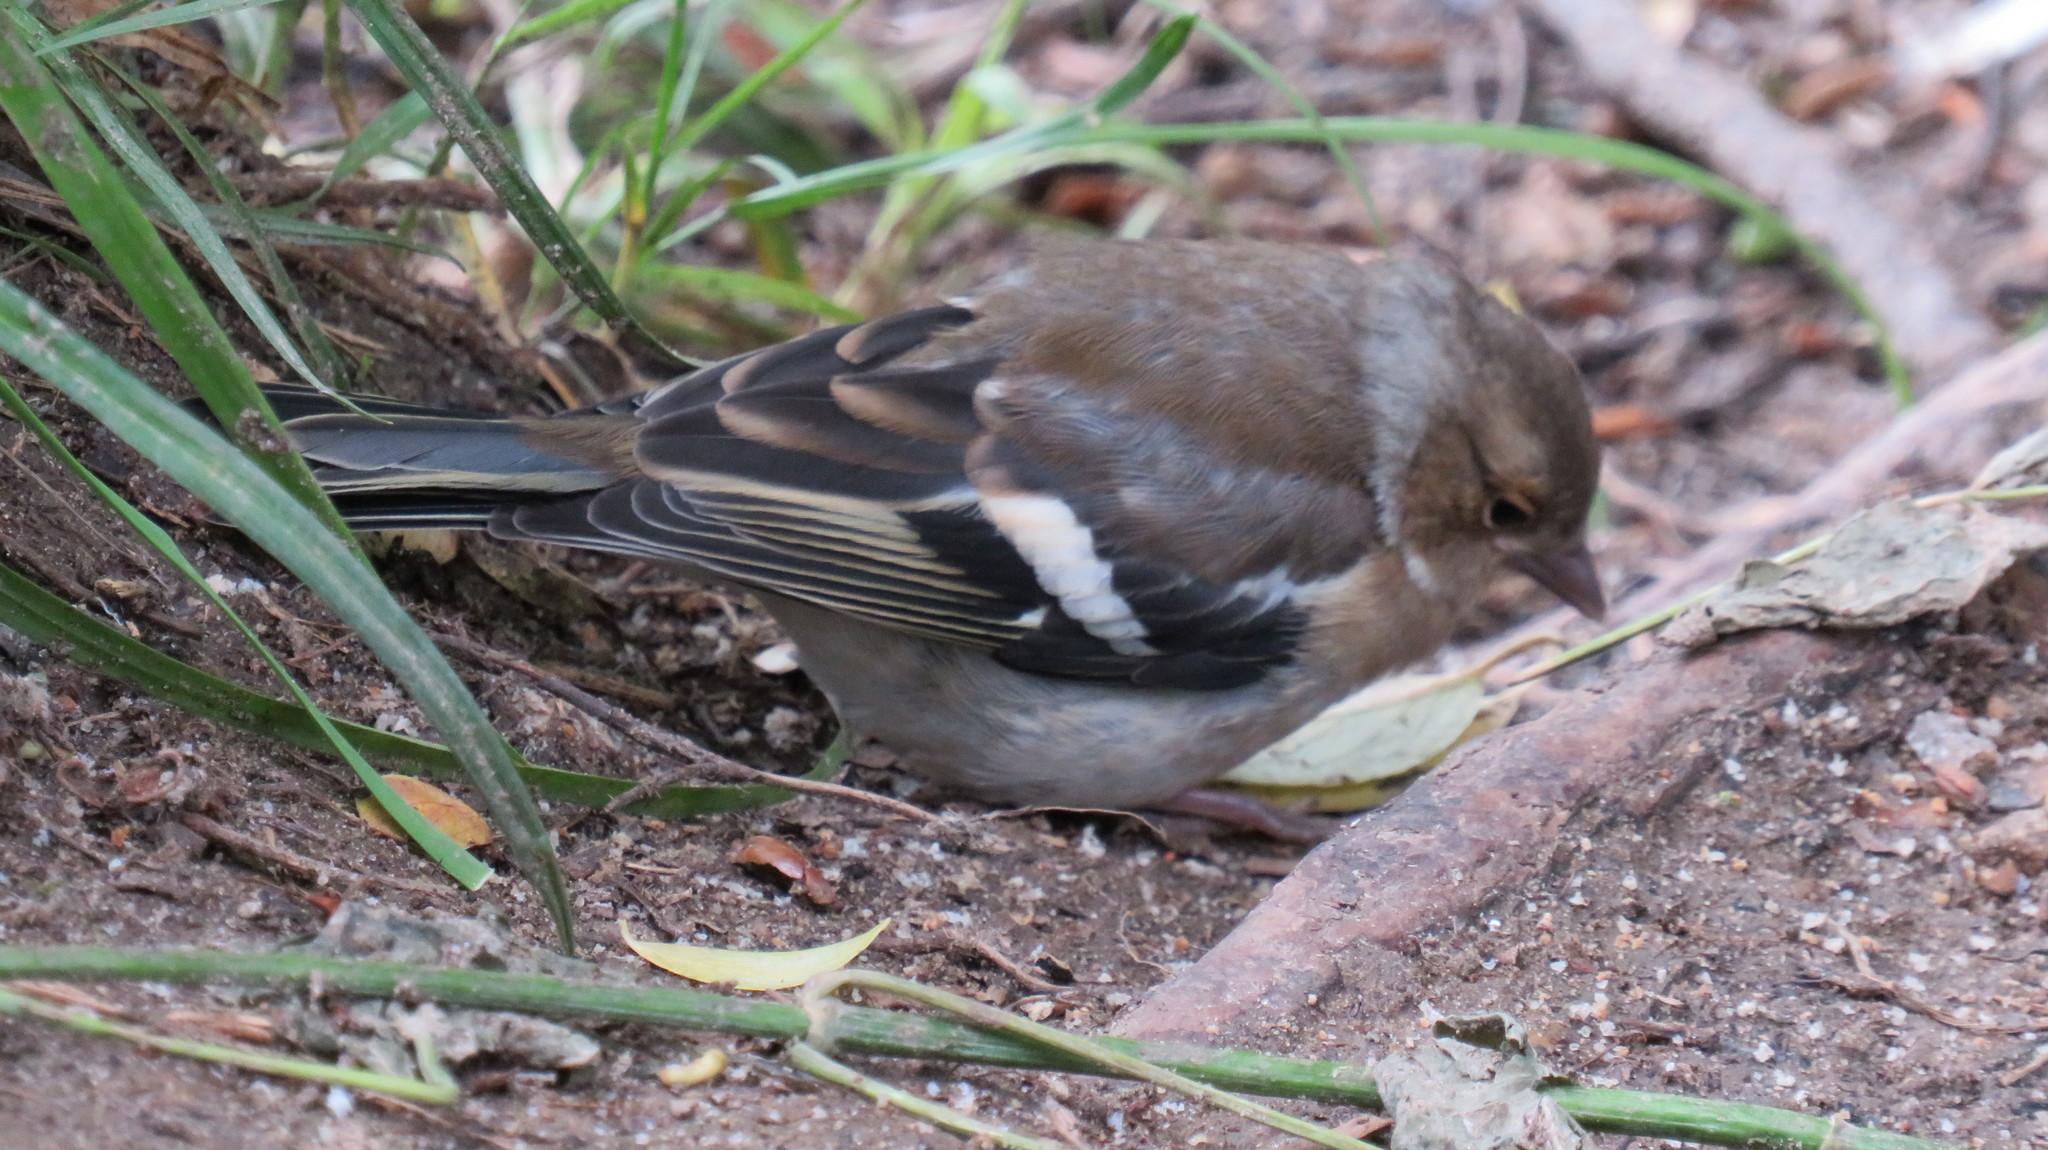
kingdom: Animalia
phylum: Chordata
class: Aves
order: Passeriformes
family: Fringillidae
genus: Fringilla
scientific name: Fringilla coelebs
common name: Common chaffinch
